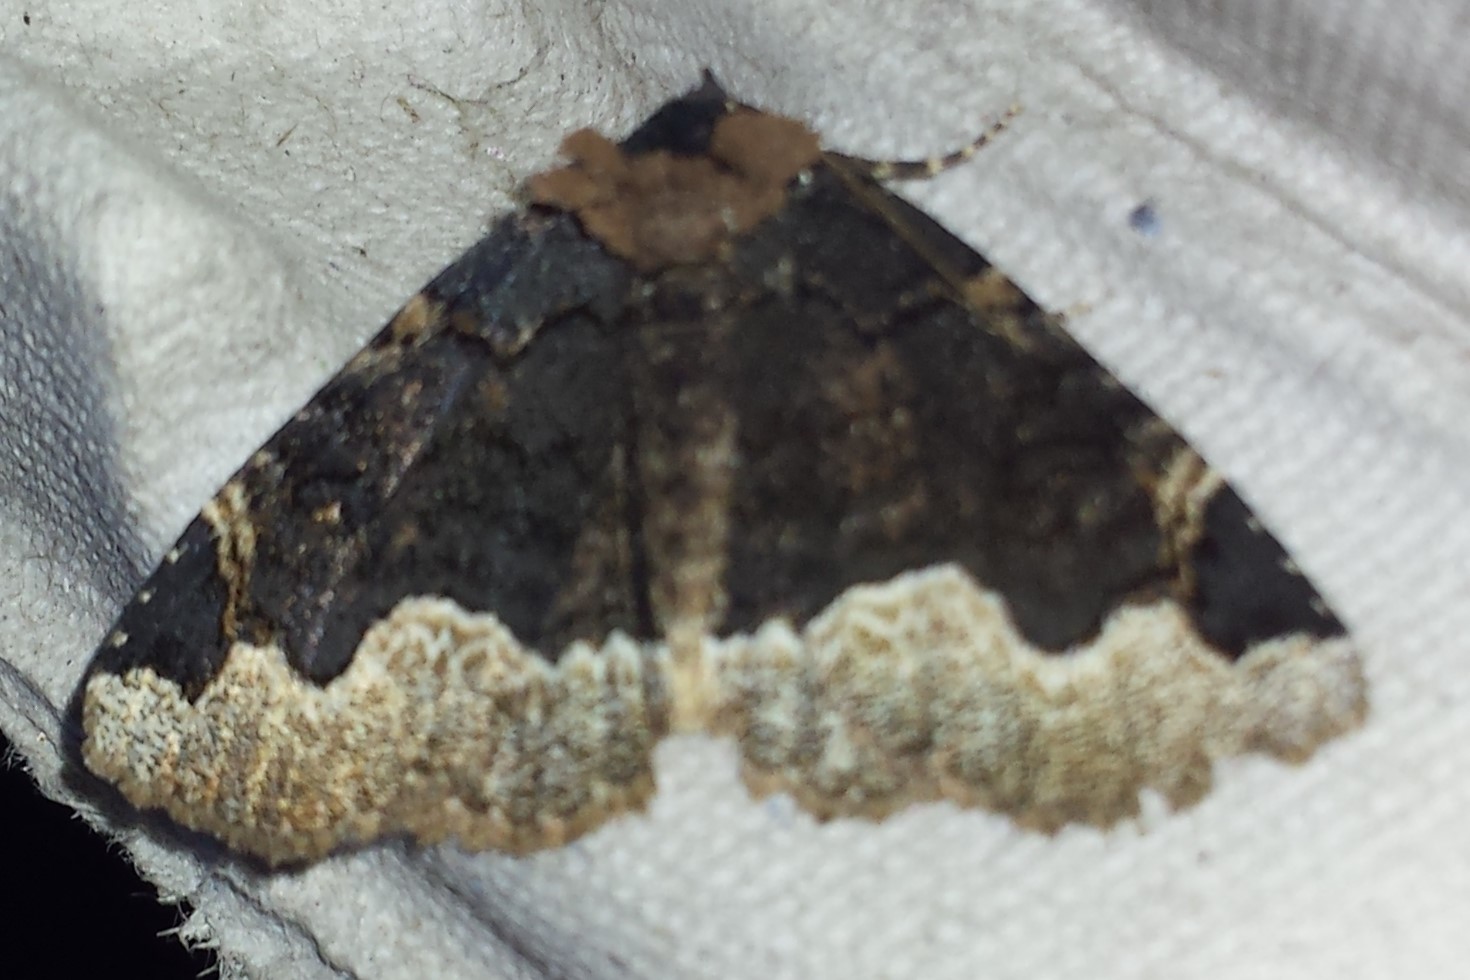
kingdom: Animalia
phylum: Arthropoda
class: Insecta
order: Lepidoptera
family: Erebidae
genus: Zale
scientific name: Zale horrida
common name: Horrid zale moth
